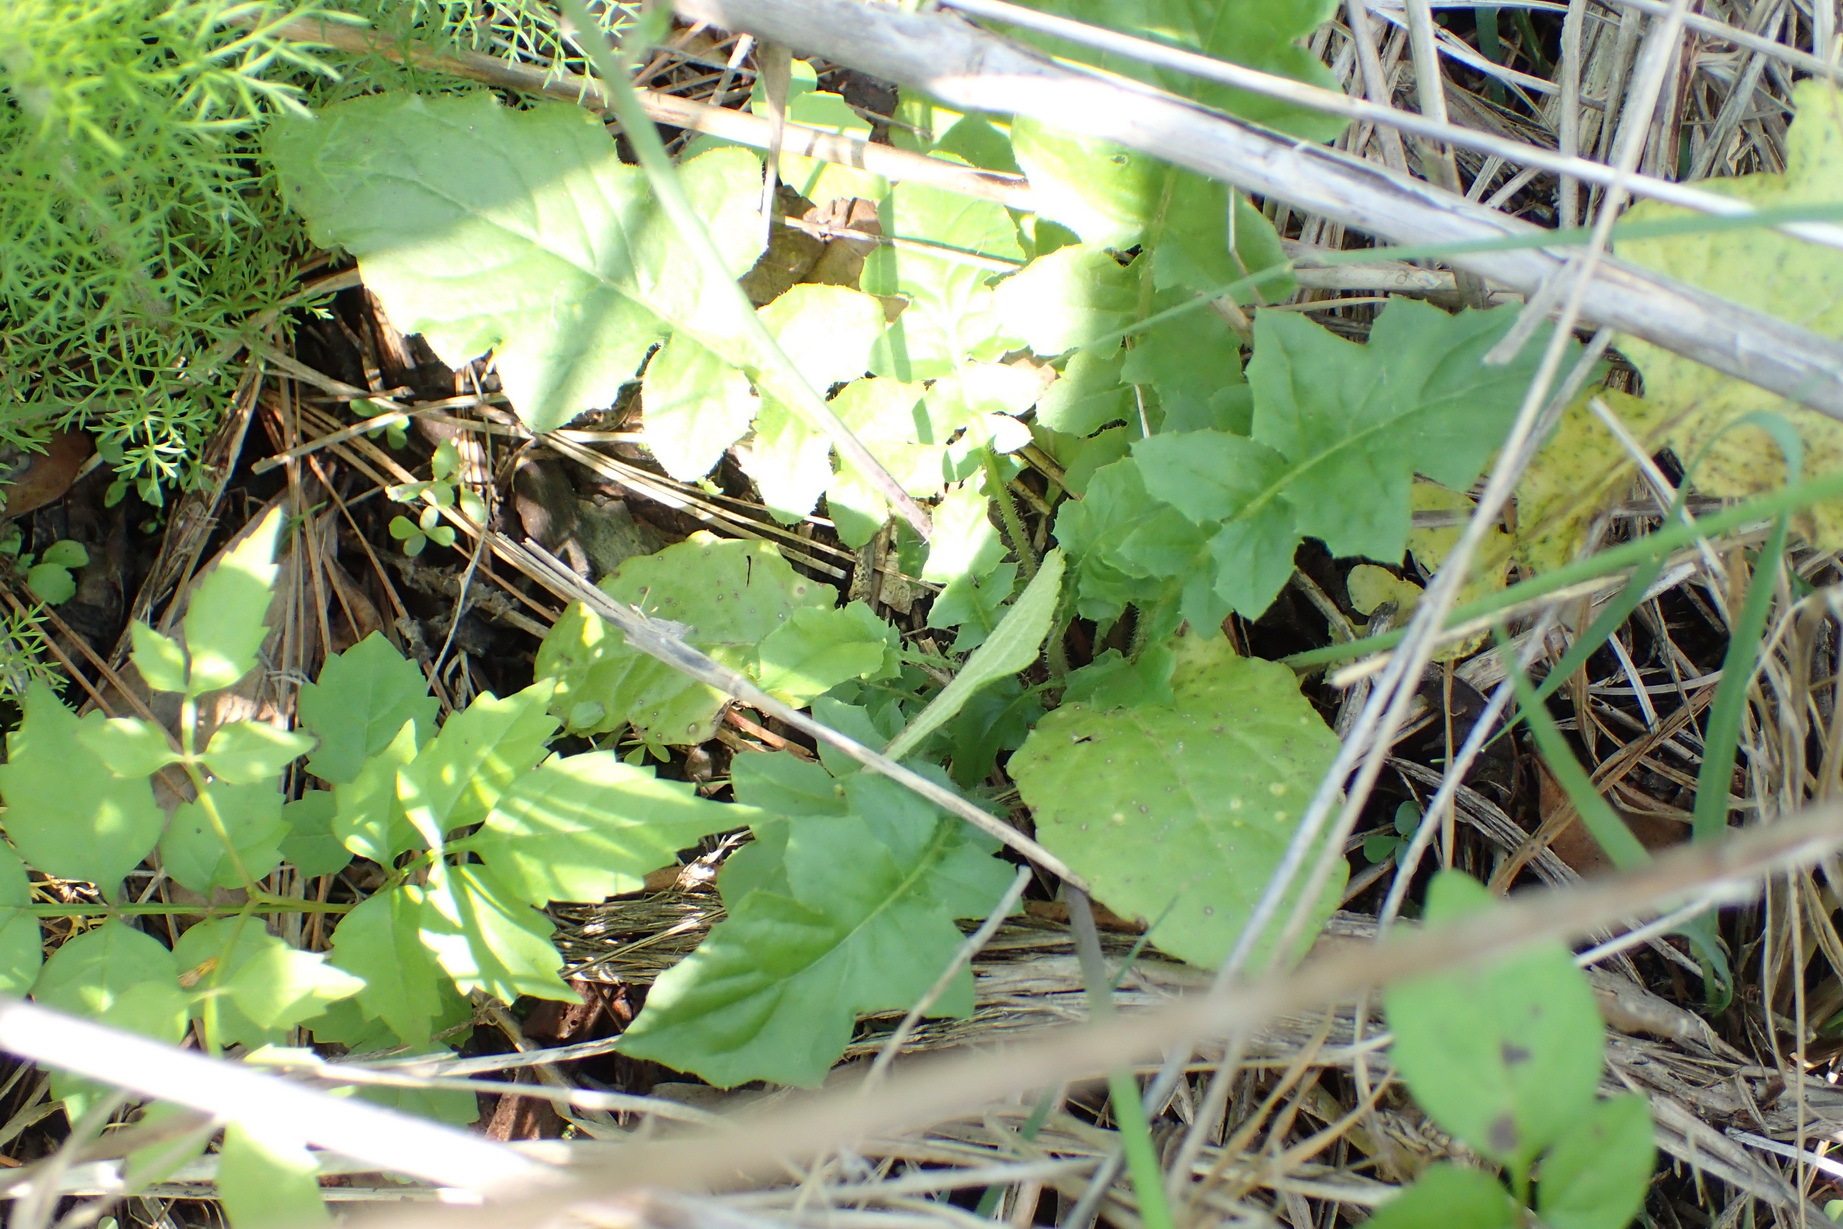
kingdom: Plantae
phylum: Tracheophyta
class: Magnoliopsida
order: Asterales
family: Asteraceae
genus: Youngia
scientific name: Youngia japonica
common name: Oriental false hawksbeard
